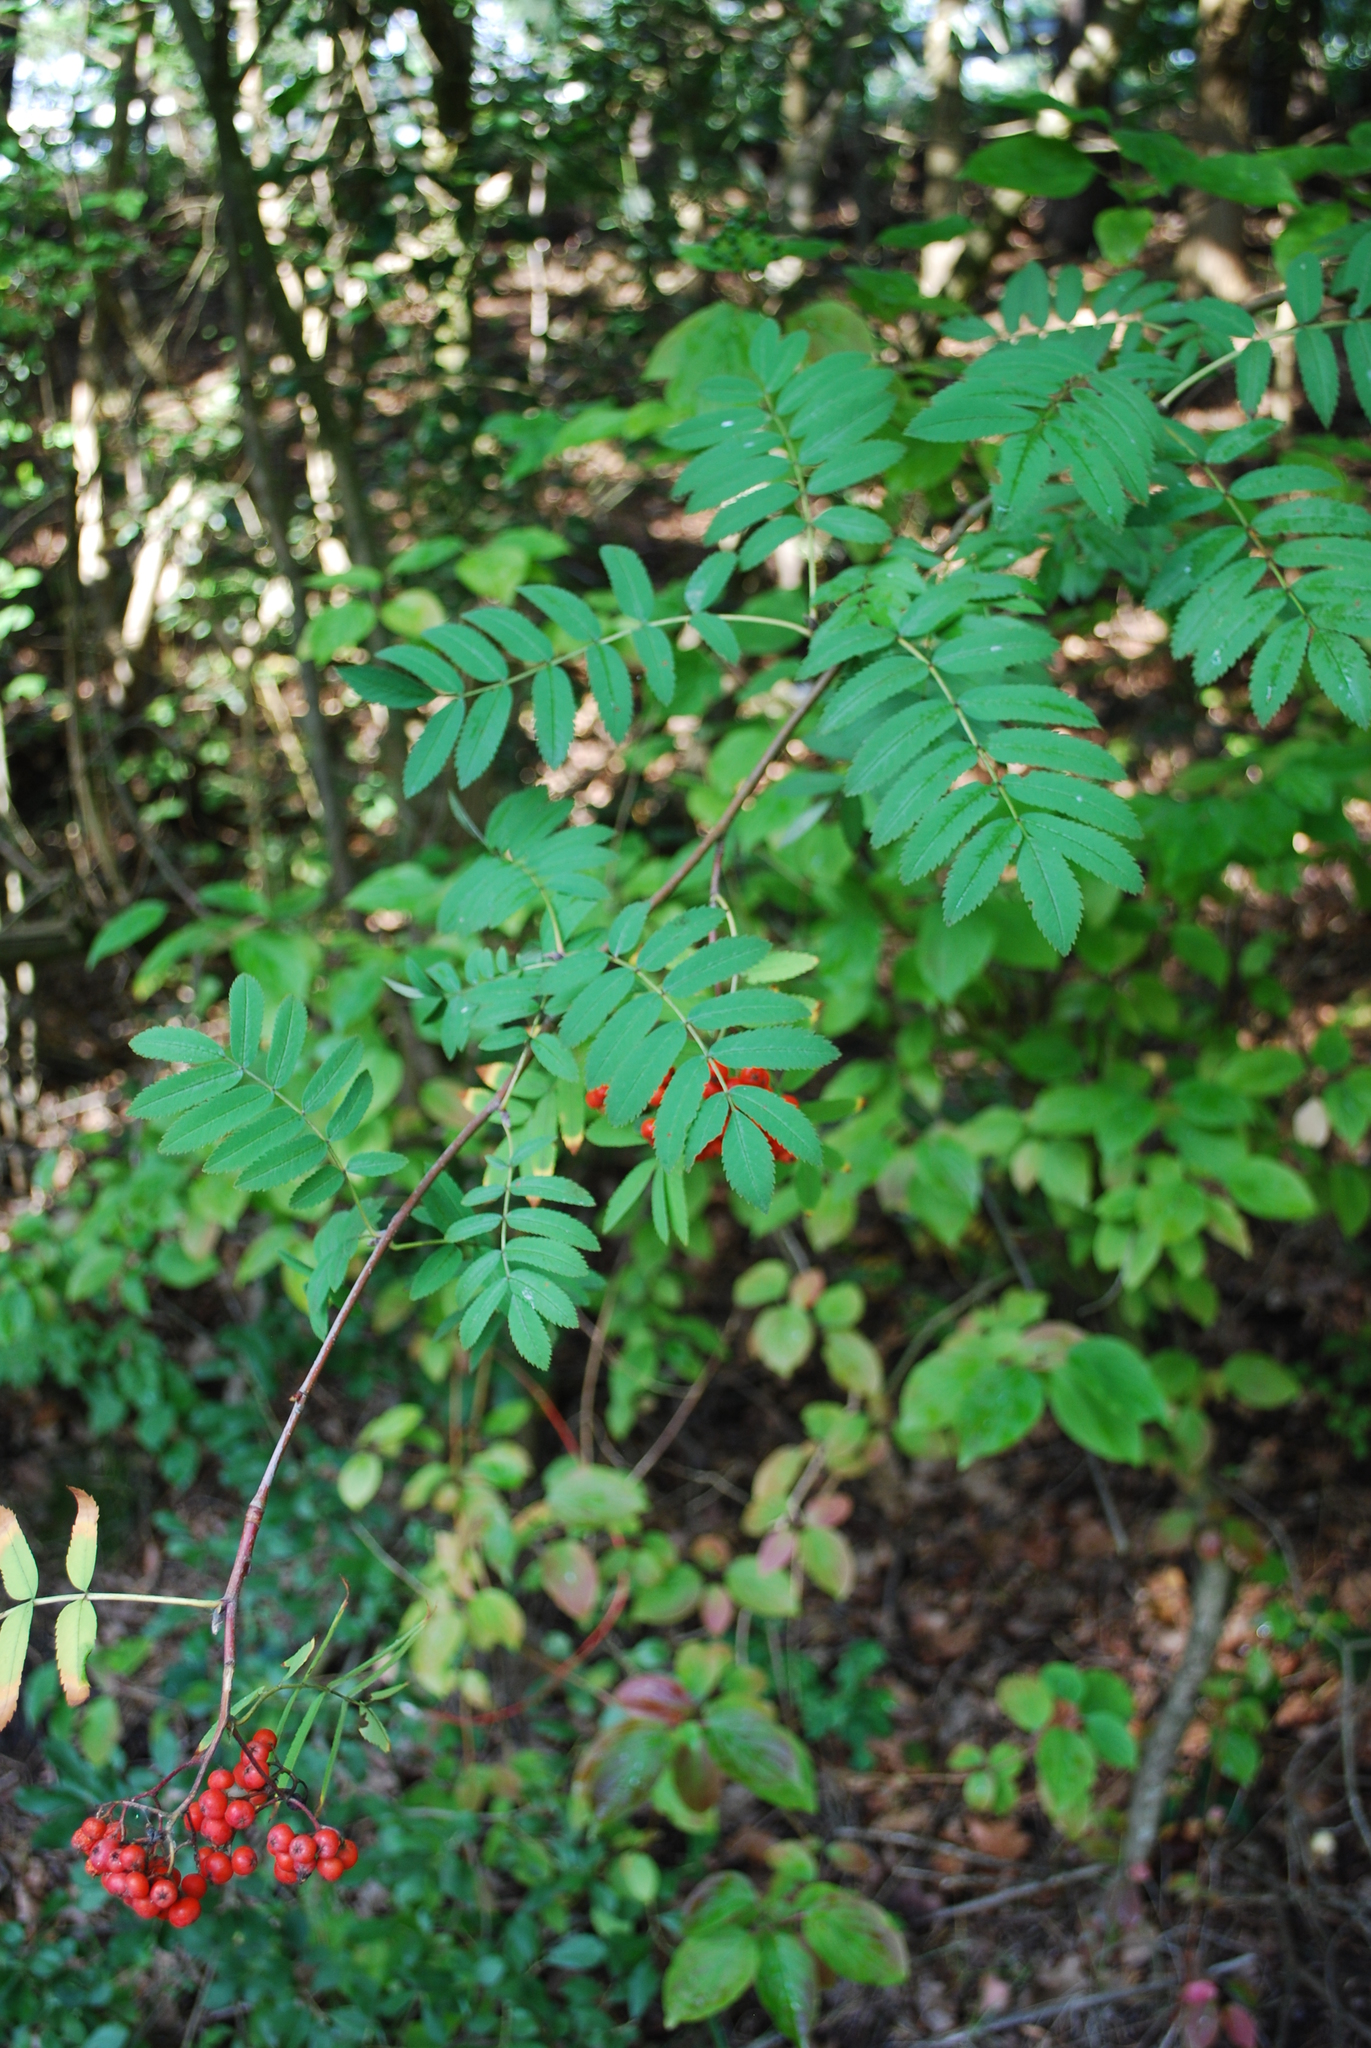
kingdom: Plantae
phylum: Tracheophyta
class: Magnoliopsida
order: Rosales
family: Rosaceae
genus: Sorbus
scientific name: Sorbus aucuparia
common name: Rowan
